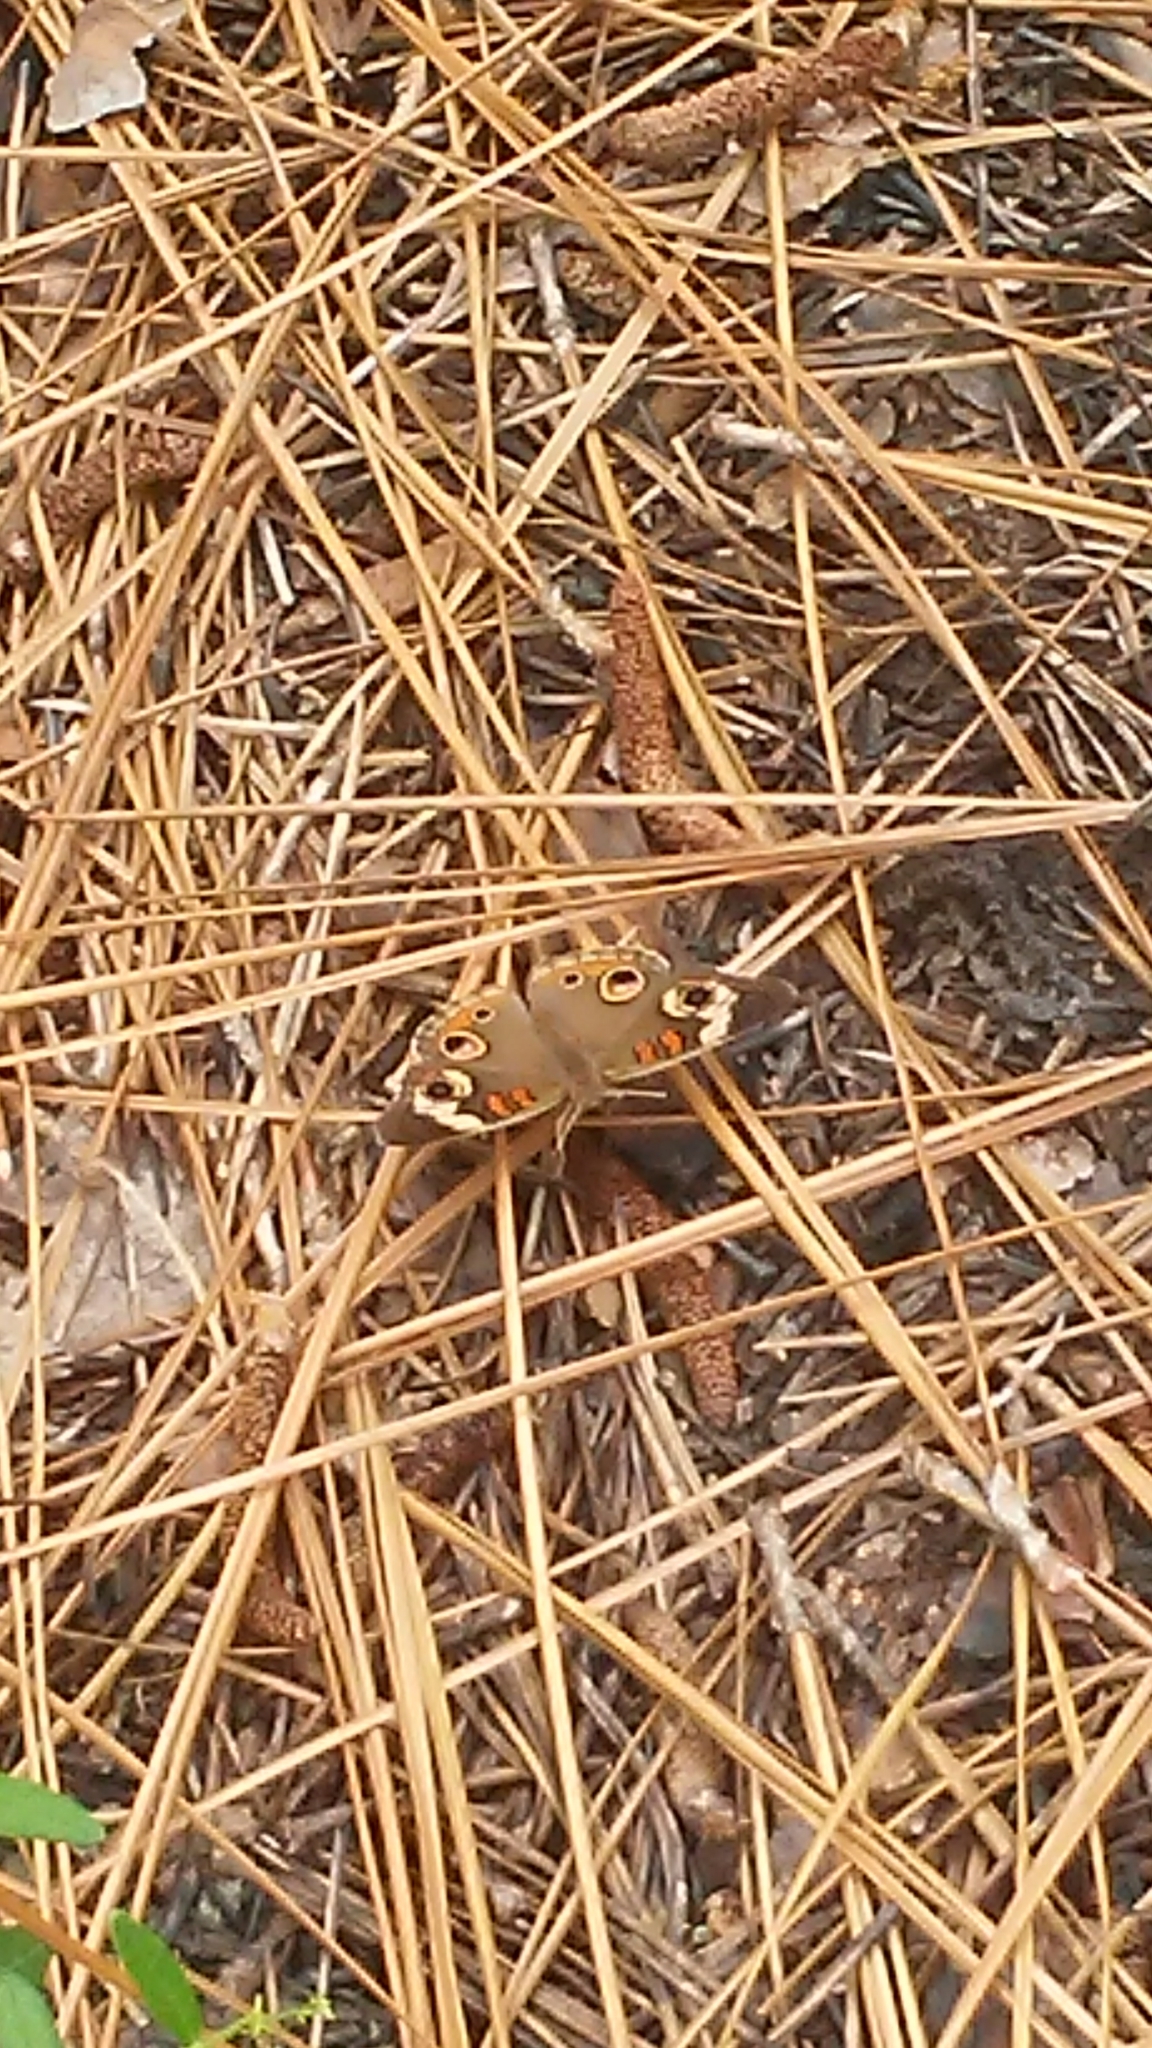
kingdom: Animalia
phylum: Arthropoda
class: Insecta
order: Lepidoptera
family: Nymphalidae
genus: Junonia
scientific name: Junonia coenia
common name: Common buckeye
